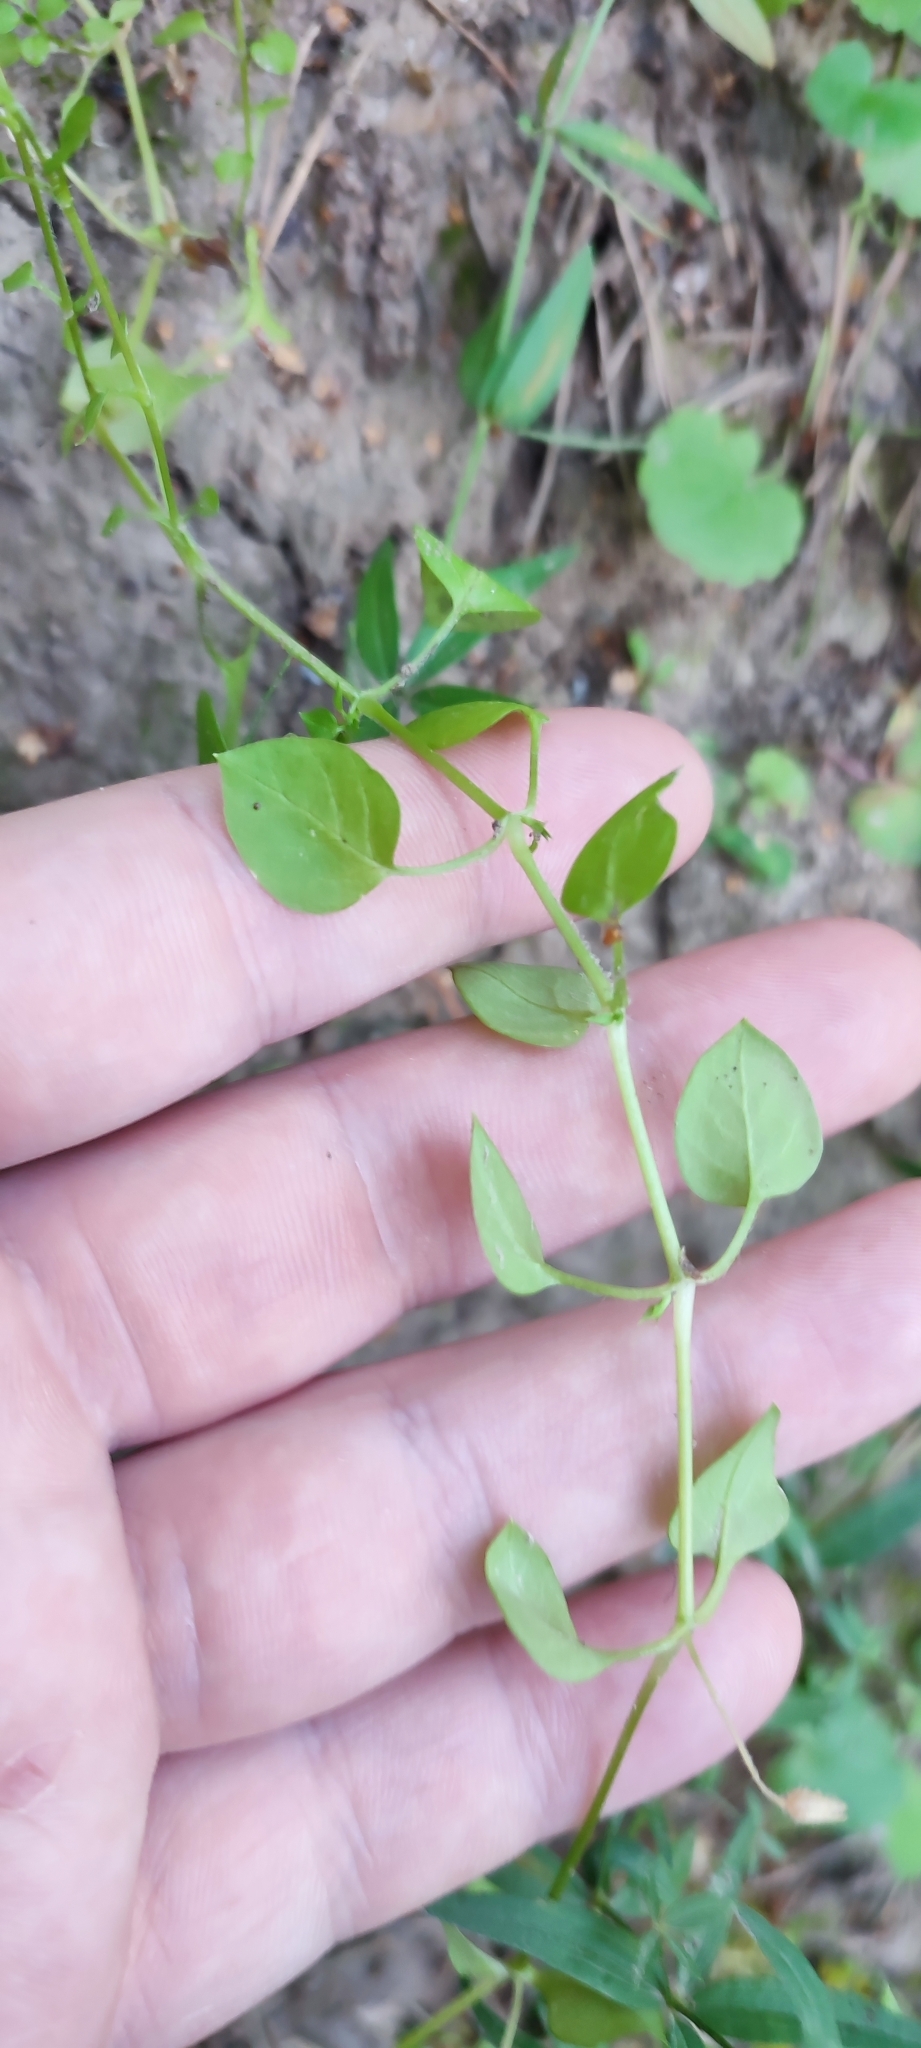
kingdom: Plantae
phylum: Tracheophyta
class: Magnoliopsida
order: Caryophyllales
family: Caryophyllaceae
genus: Stellaria
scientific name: Stellaria media
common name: Common chickweed
